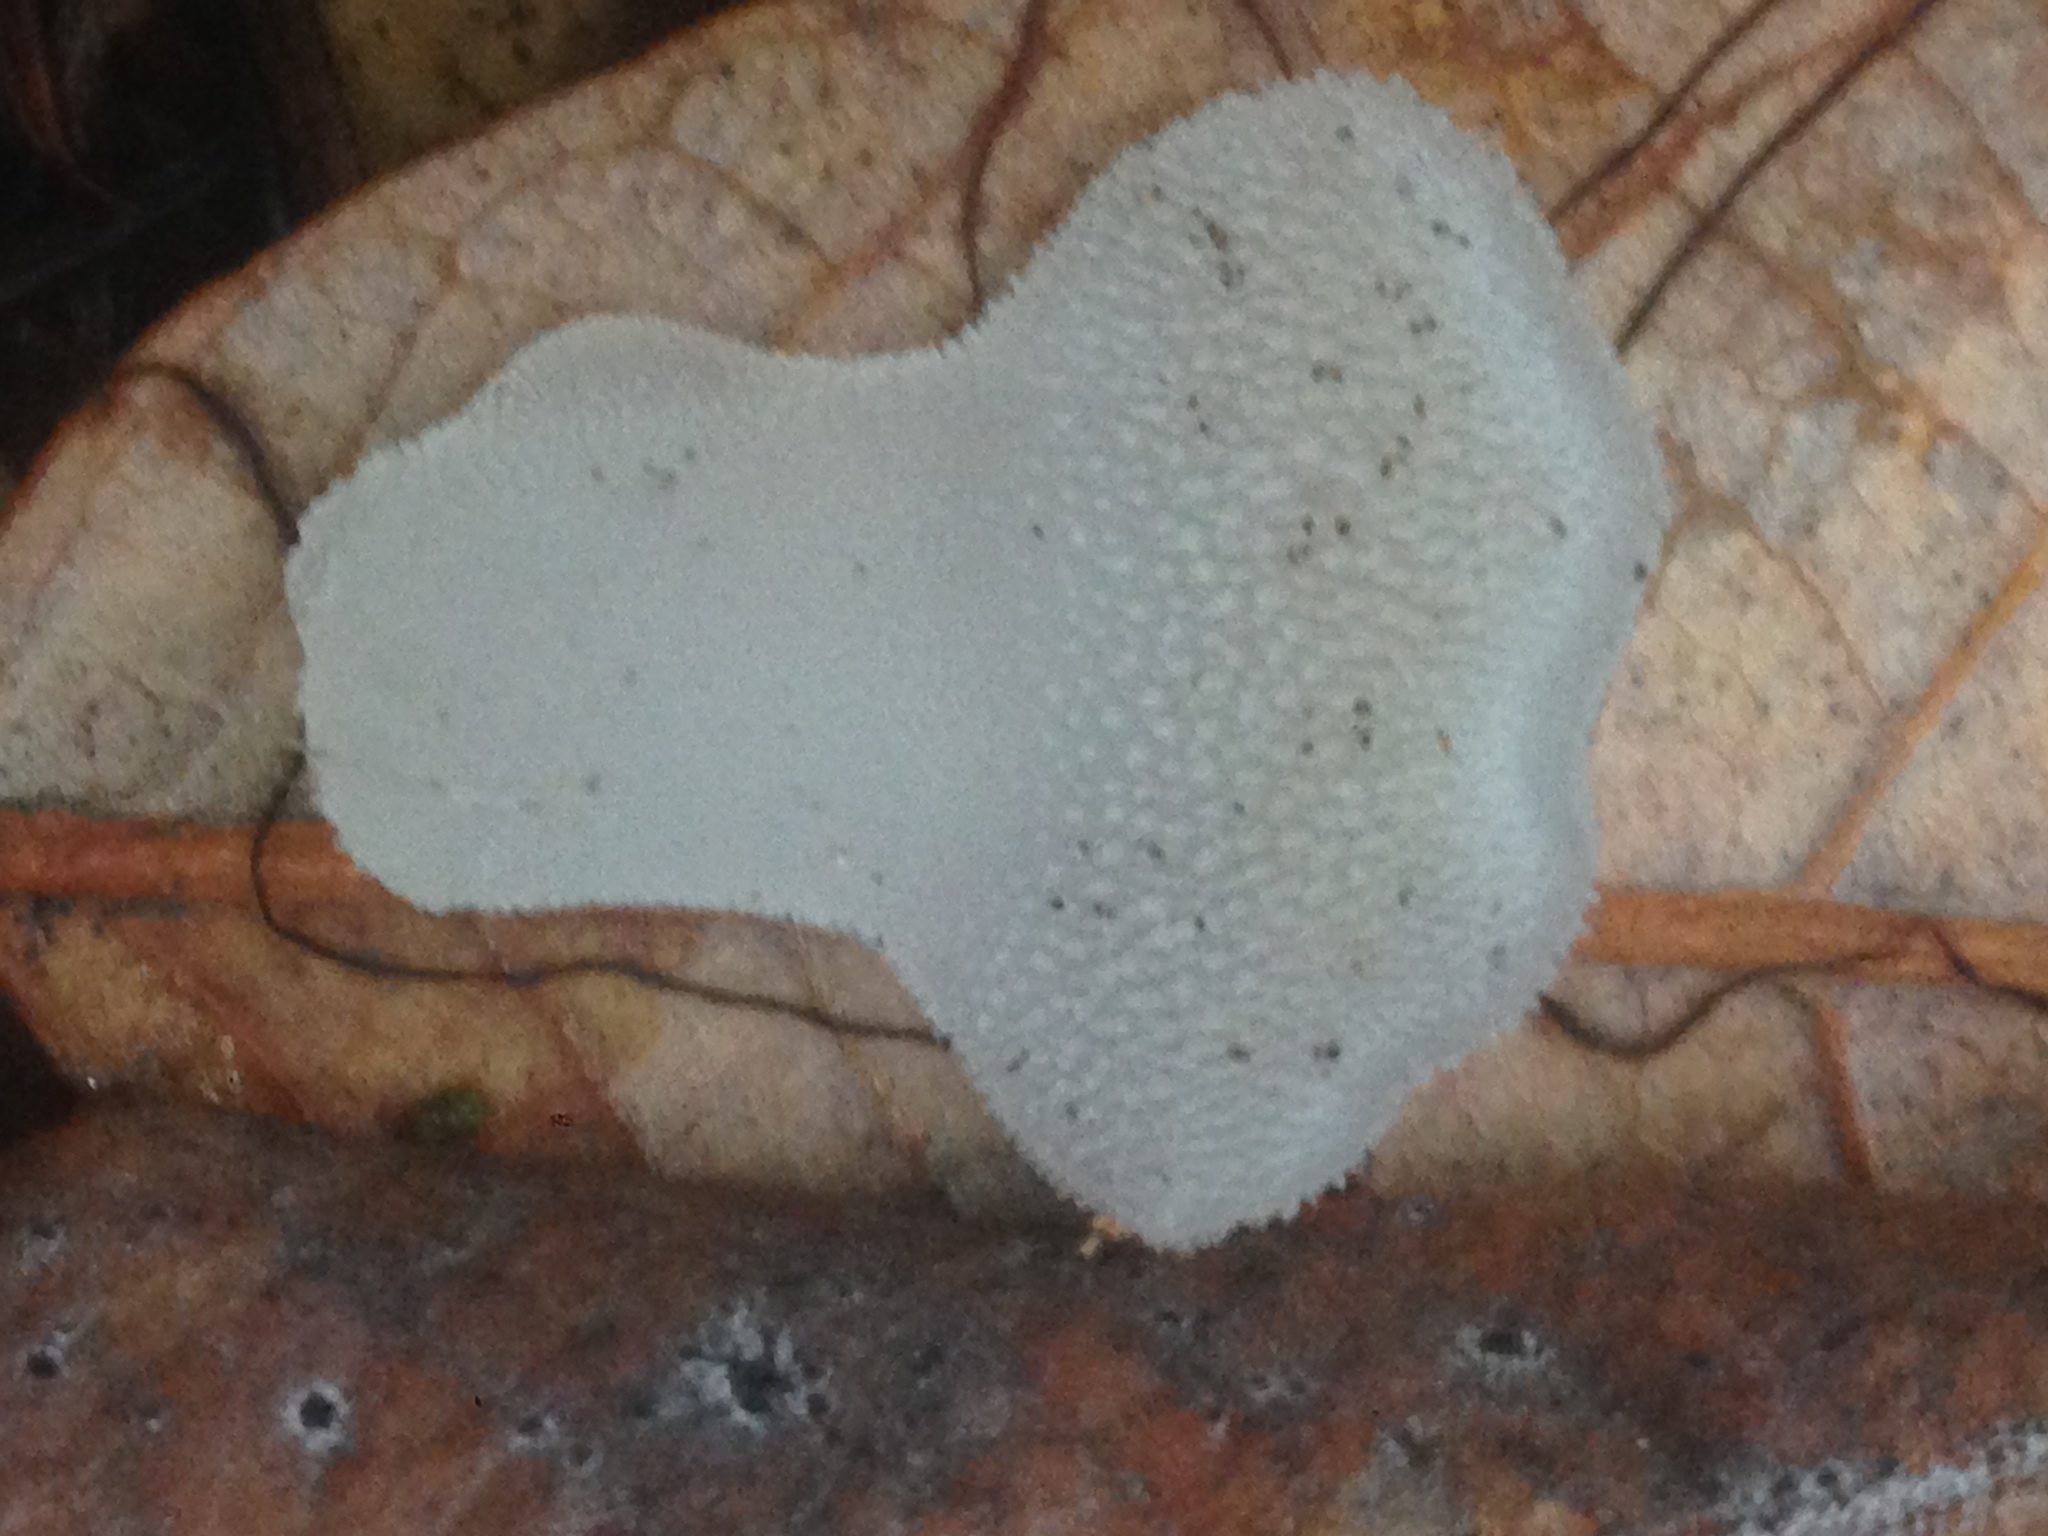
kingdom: Fungi
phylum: Basidiomycota
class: Agaricomycetes
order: Auriculariales
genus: Pseudohydnum
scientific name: Pseudohydnum gelatinosum
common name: Jelly tongue
